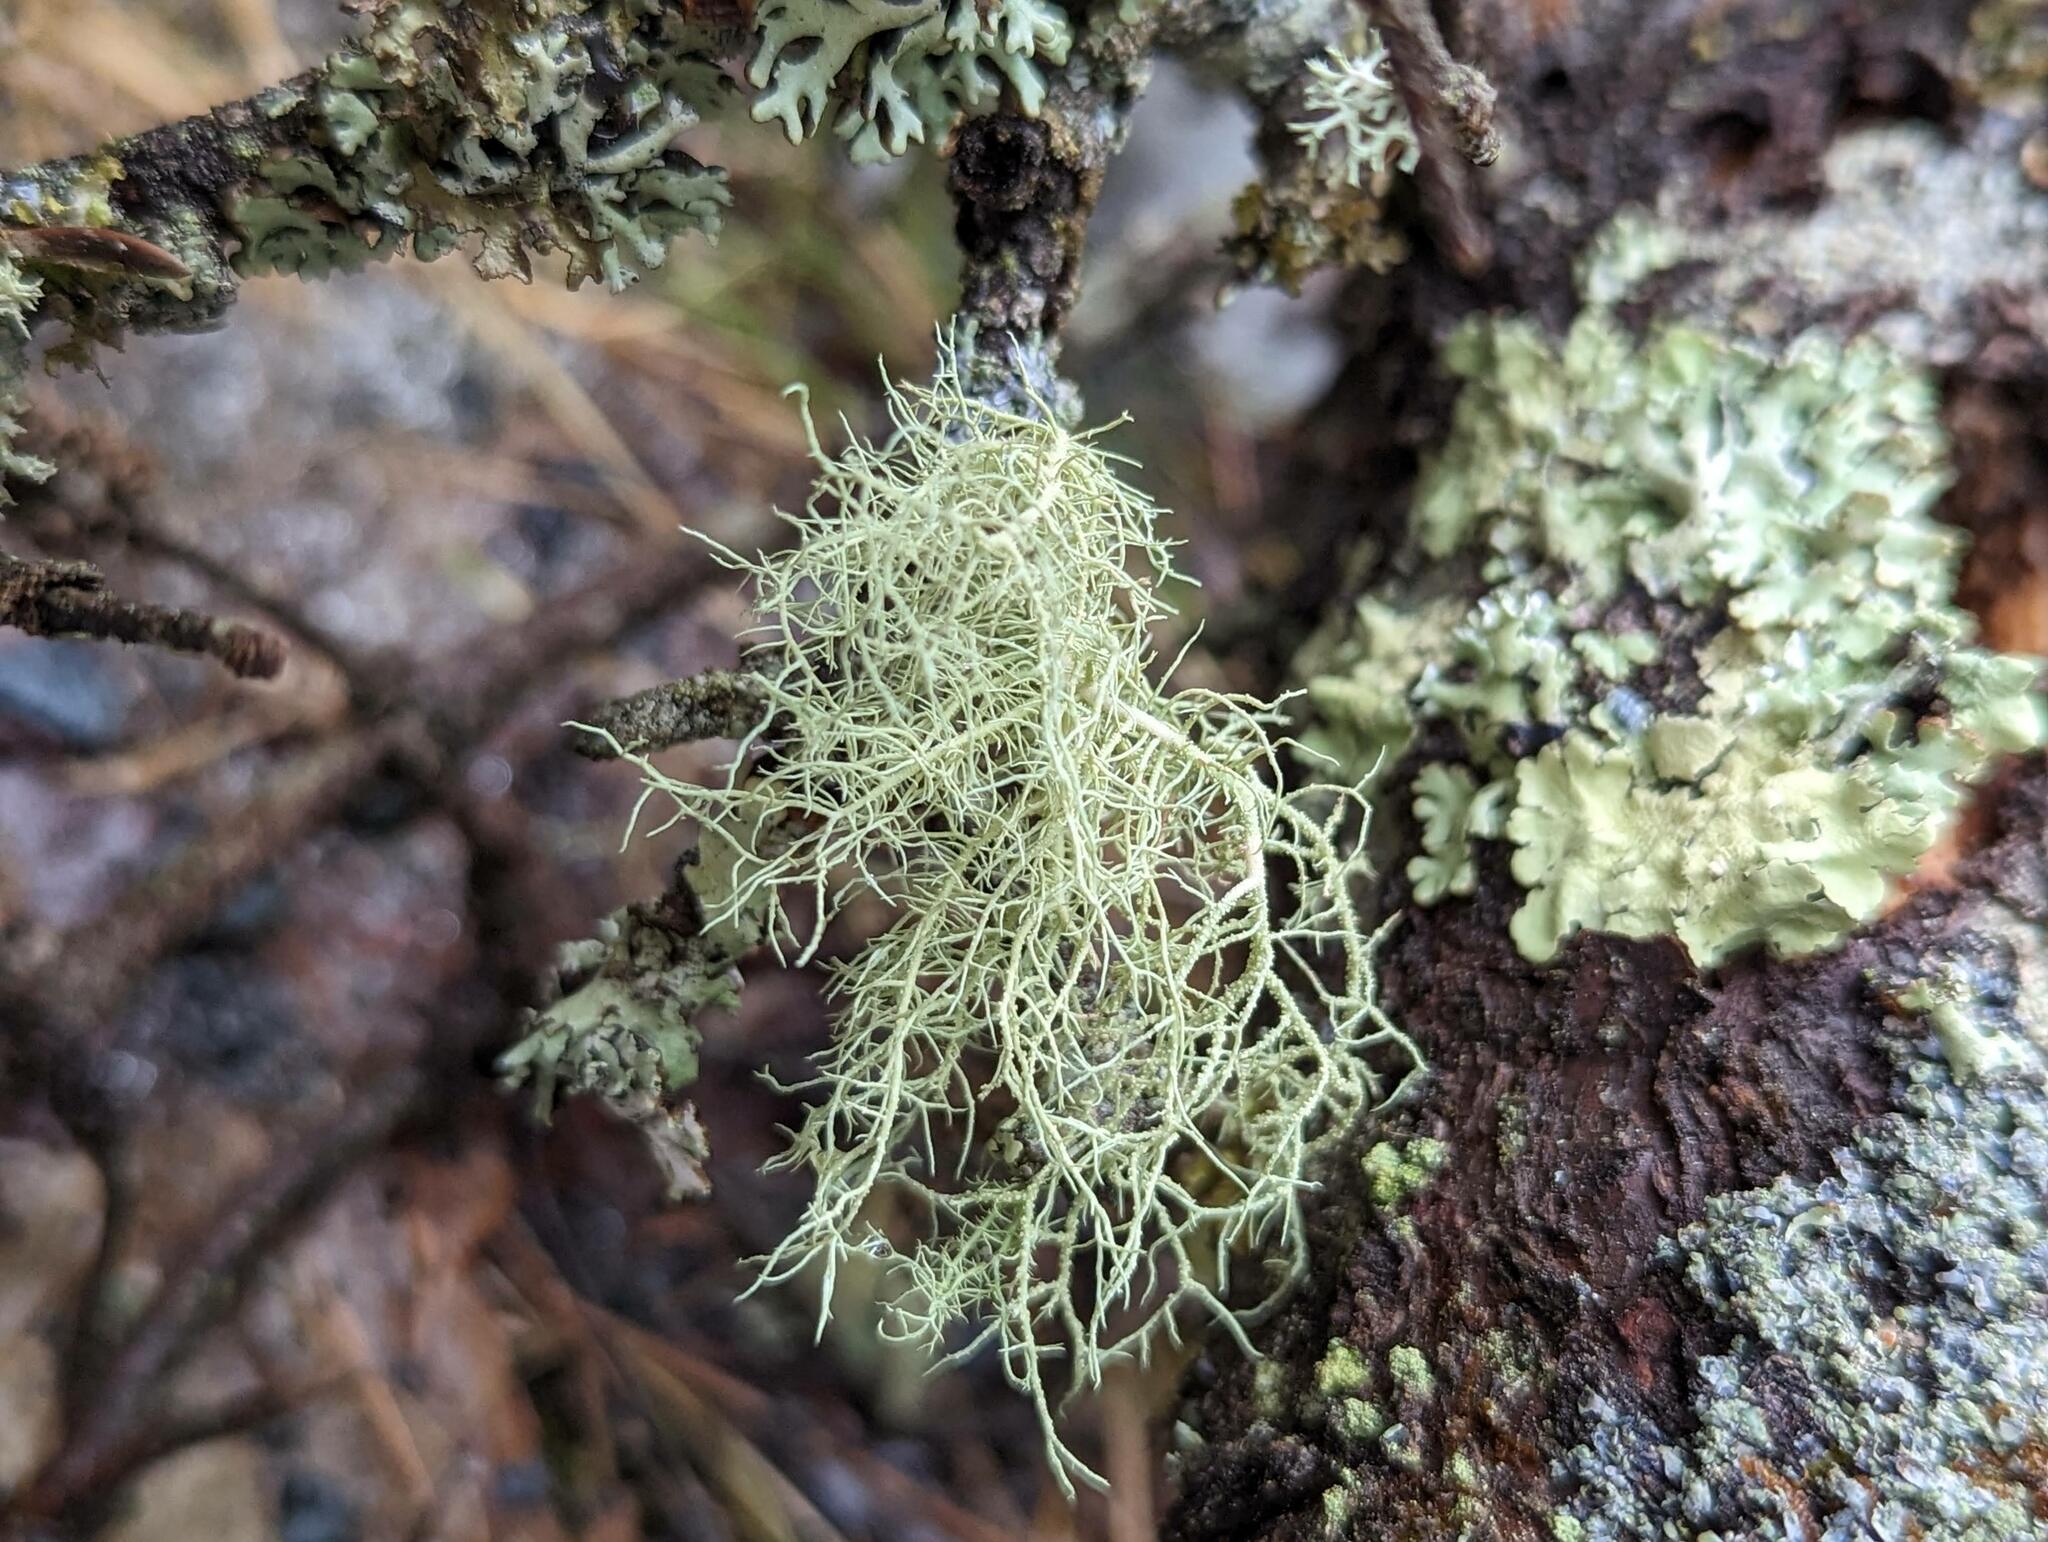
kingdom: Fungi
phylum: Ascomycota
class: Lecanoromycetes
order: Lecanorales
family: Parmeliaceae
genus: Usnea
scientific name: Usnea hirta
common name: Bristly beard lichen
